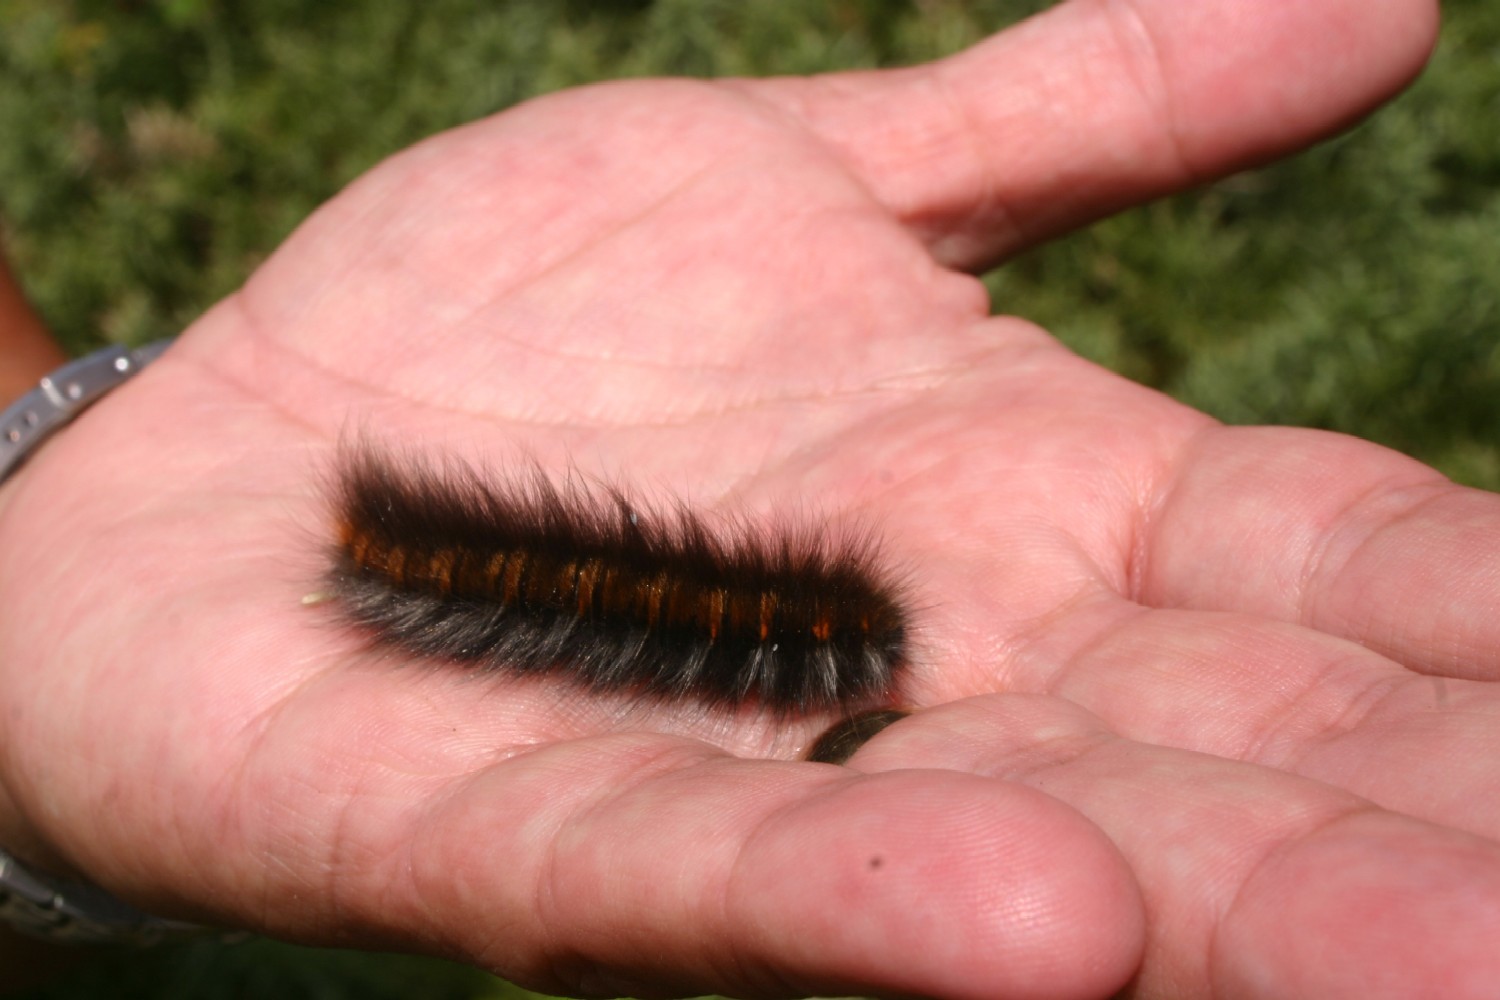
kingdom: Animalia
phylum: Arthropoda
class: Insecta
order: Lepidoptera
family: Lasiocampidae
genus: Macrothylacia
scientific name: Macrothylacia rubi
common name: Fox moth
